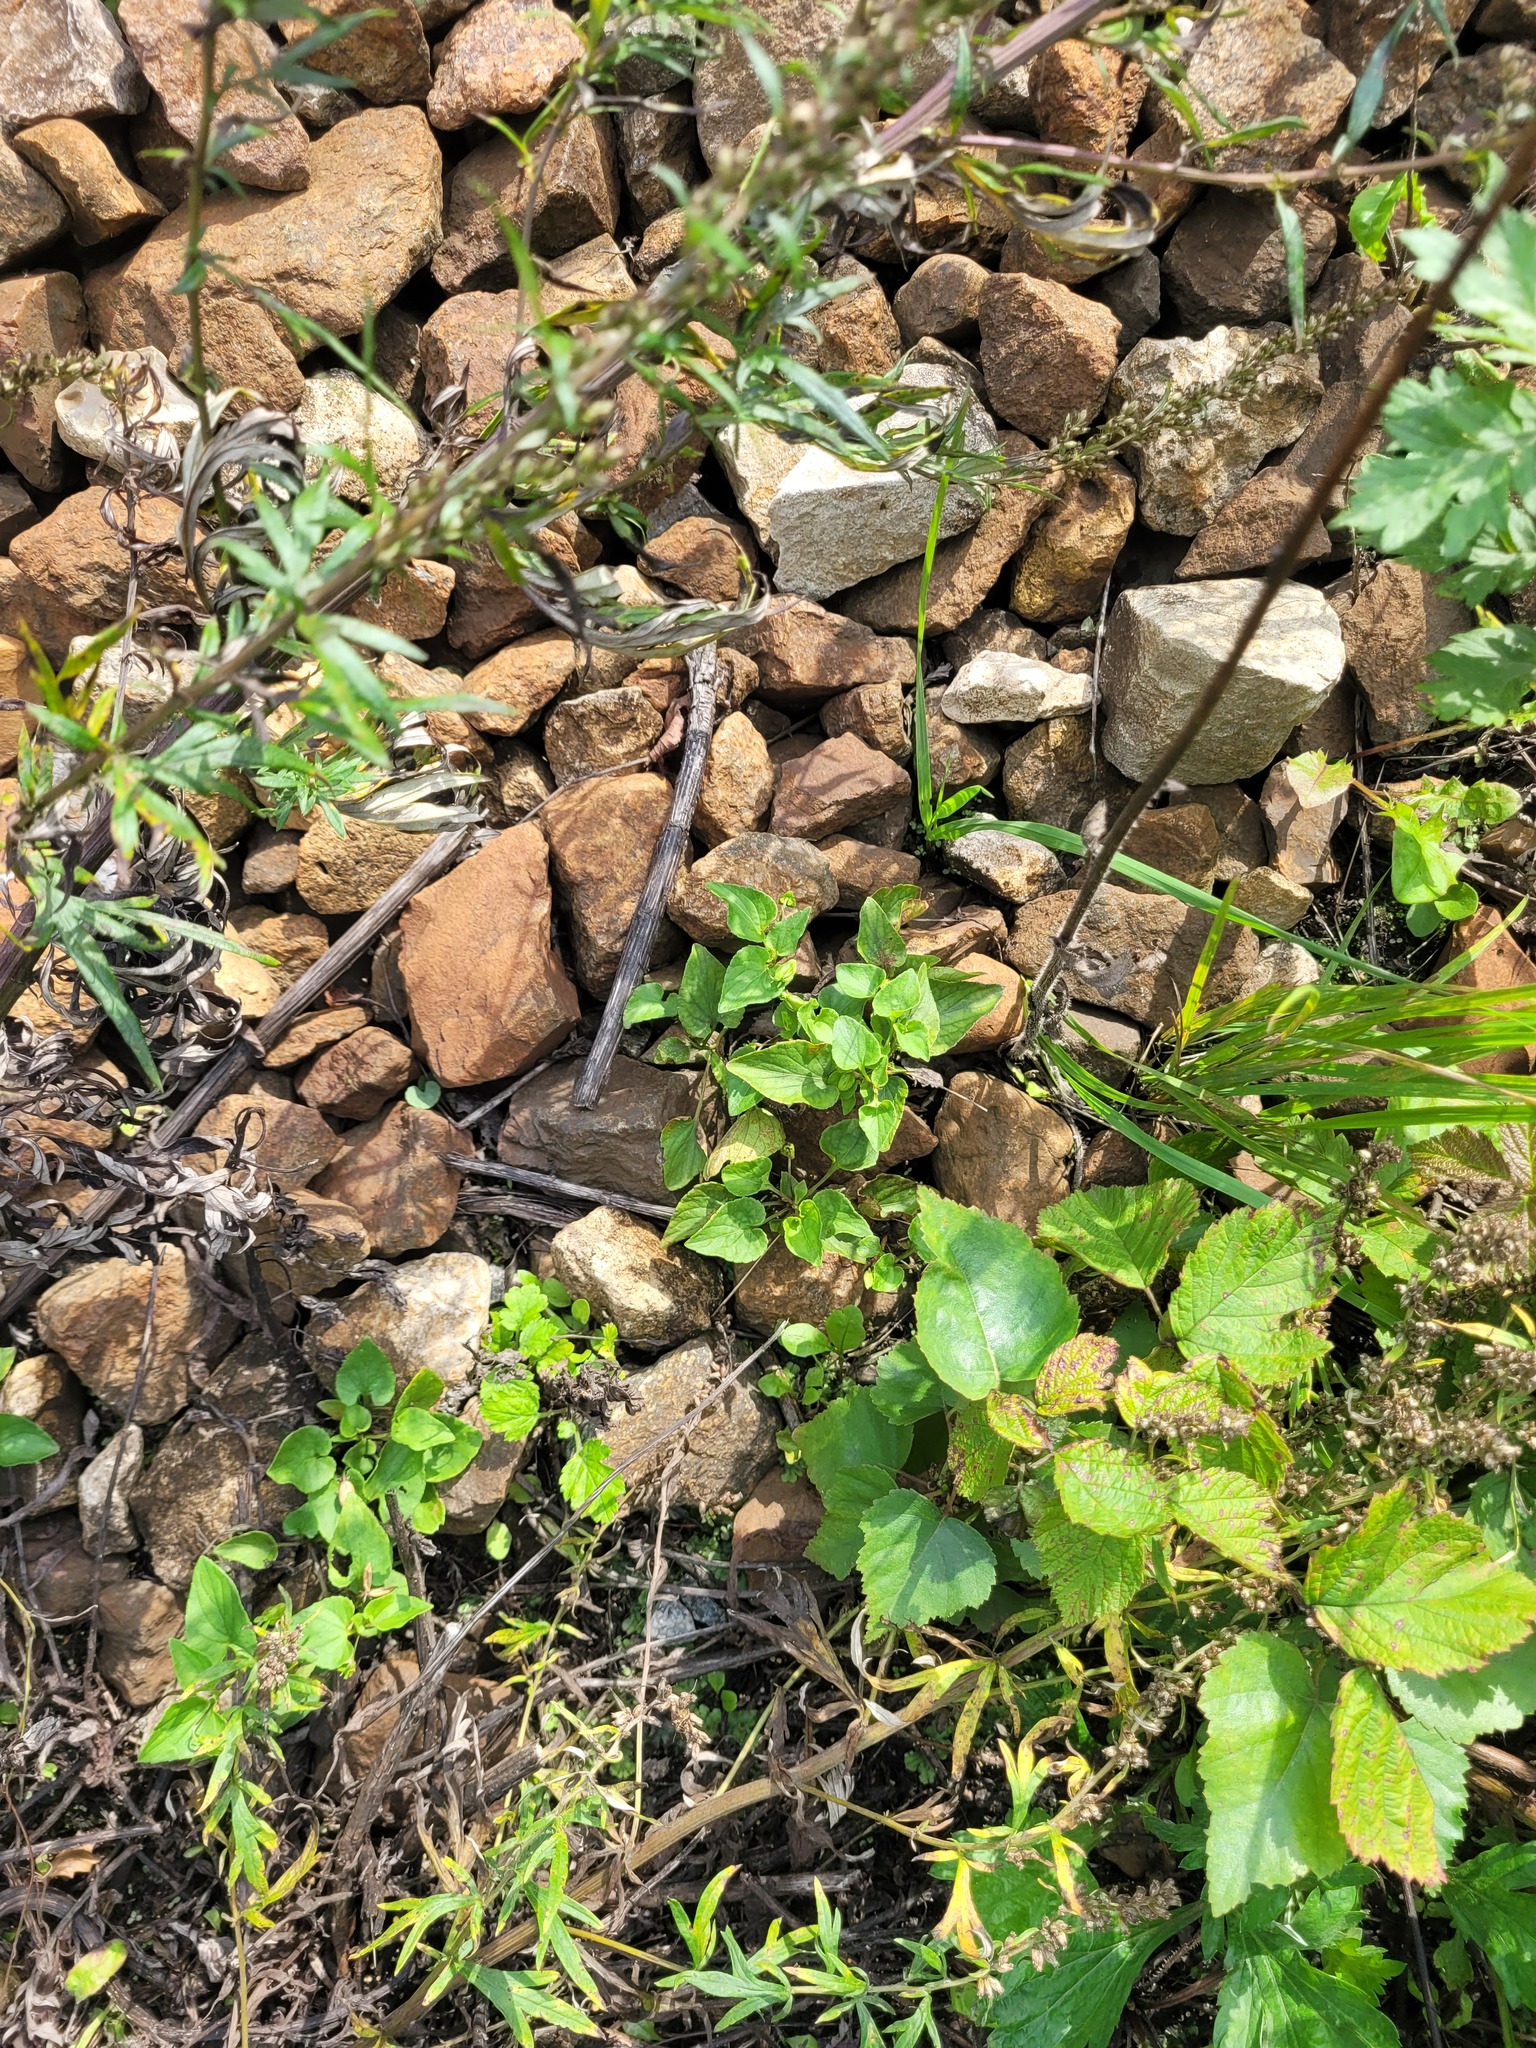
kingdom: Plantae
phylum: Tracheophyta
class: Magnoliopsida
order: Malpighiales
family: Violaceae
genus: Viola
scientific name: Viola canina
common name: Heath dog-violet
